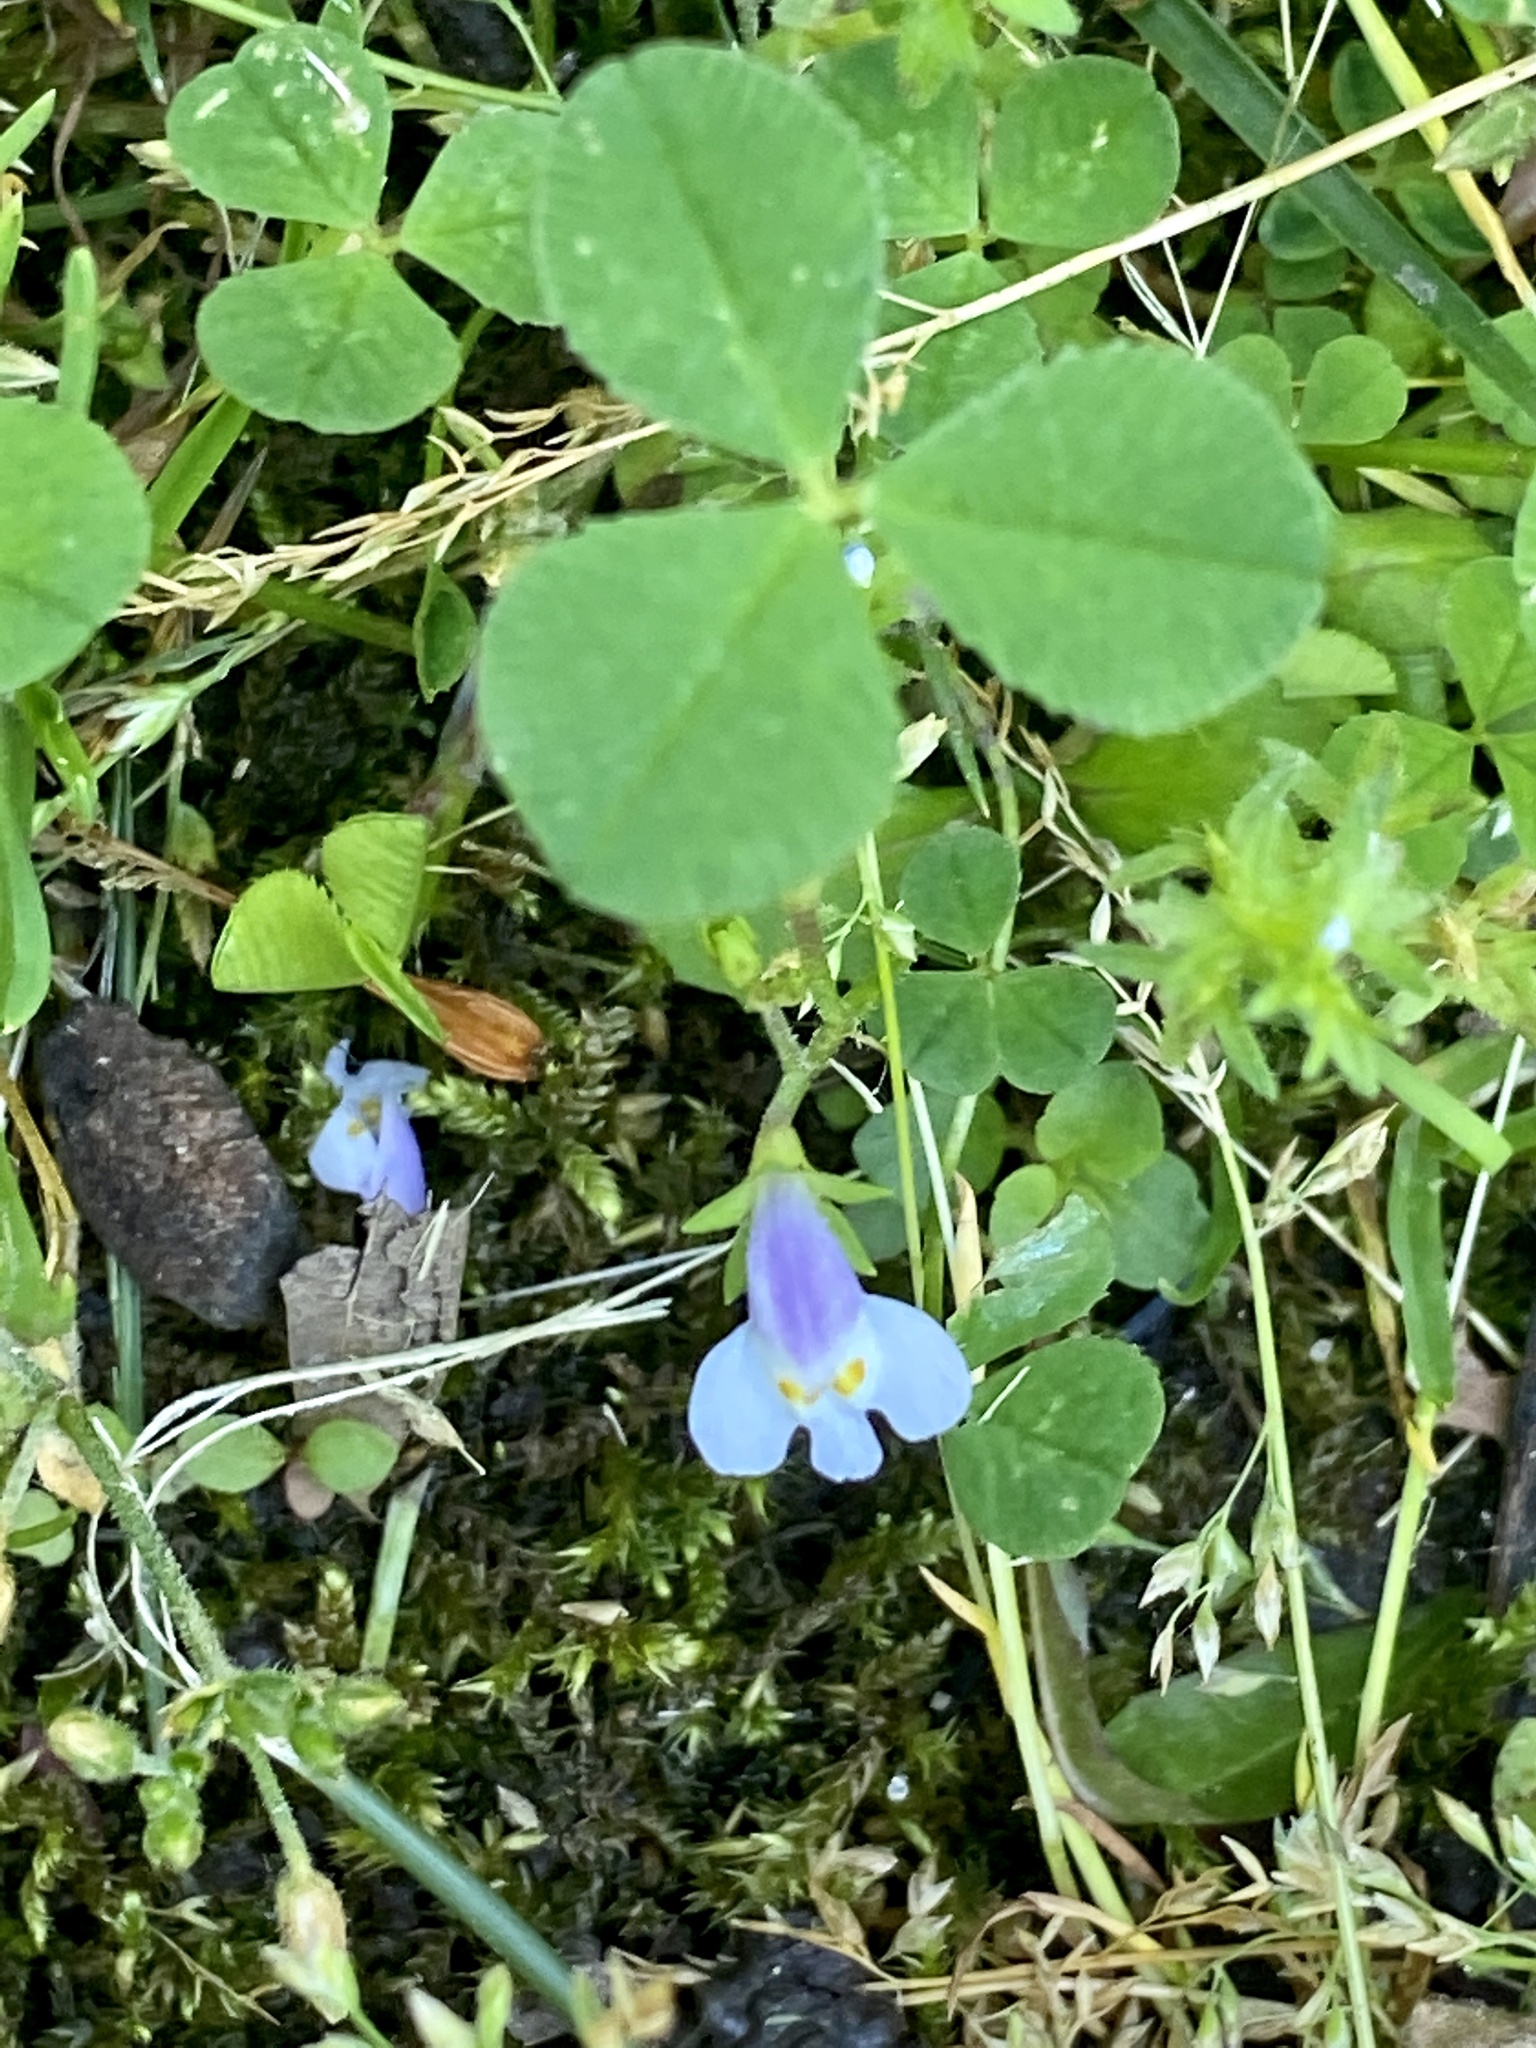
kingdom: Plantae
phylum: Tracheophyta
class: Magnoliopsida
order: Lamiales
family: Mazaceae
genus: Mazus
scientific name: Mazus pumilus
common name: Japanese mazus
